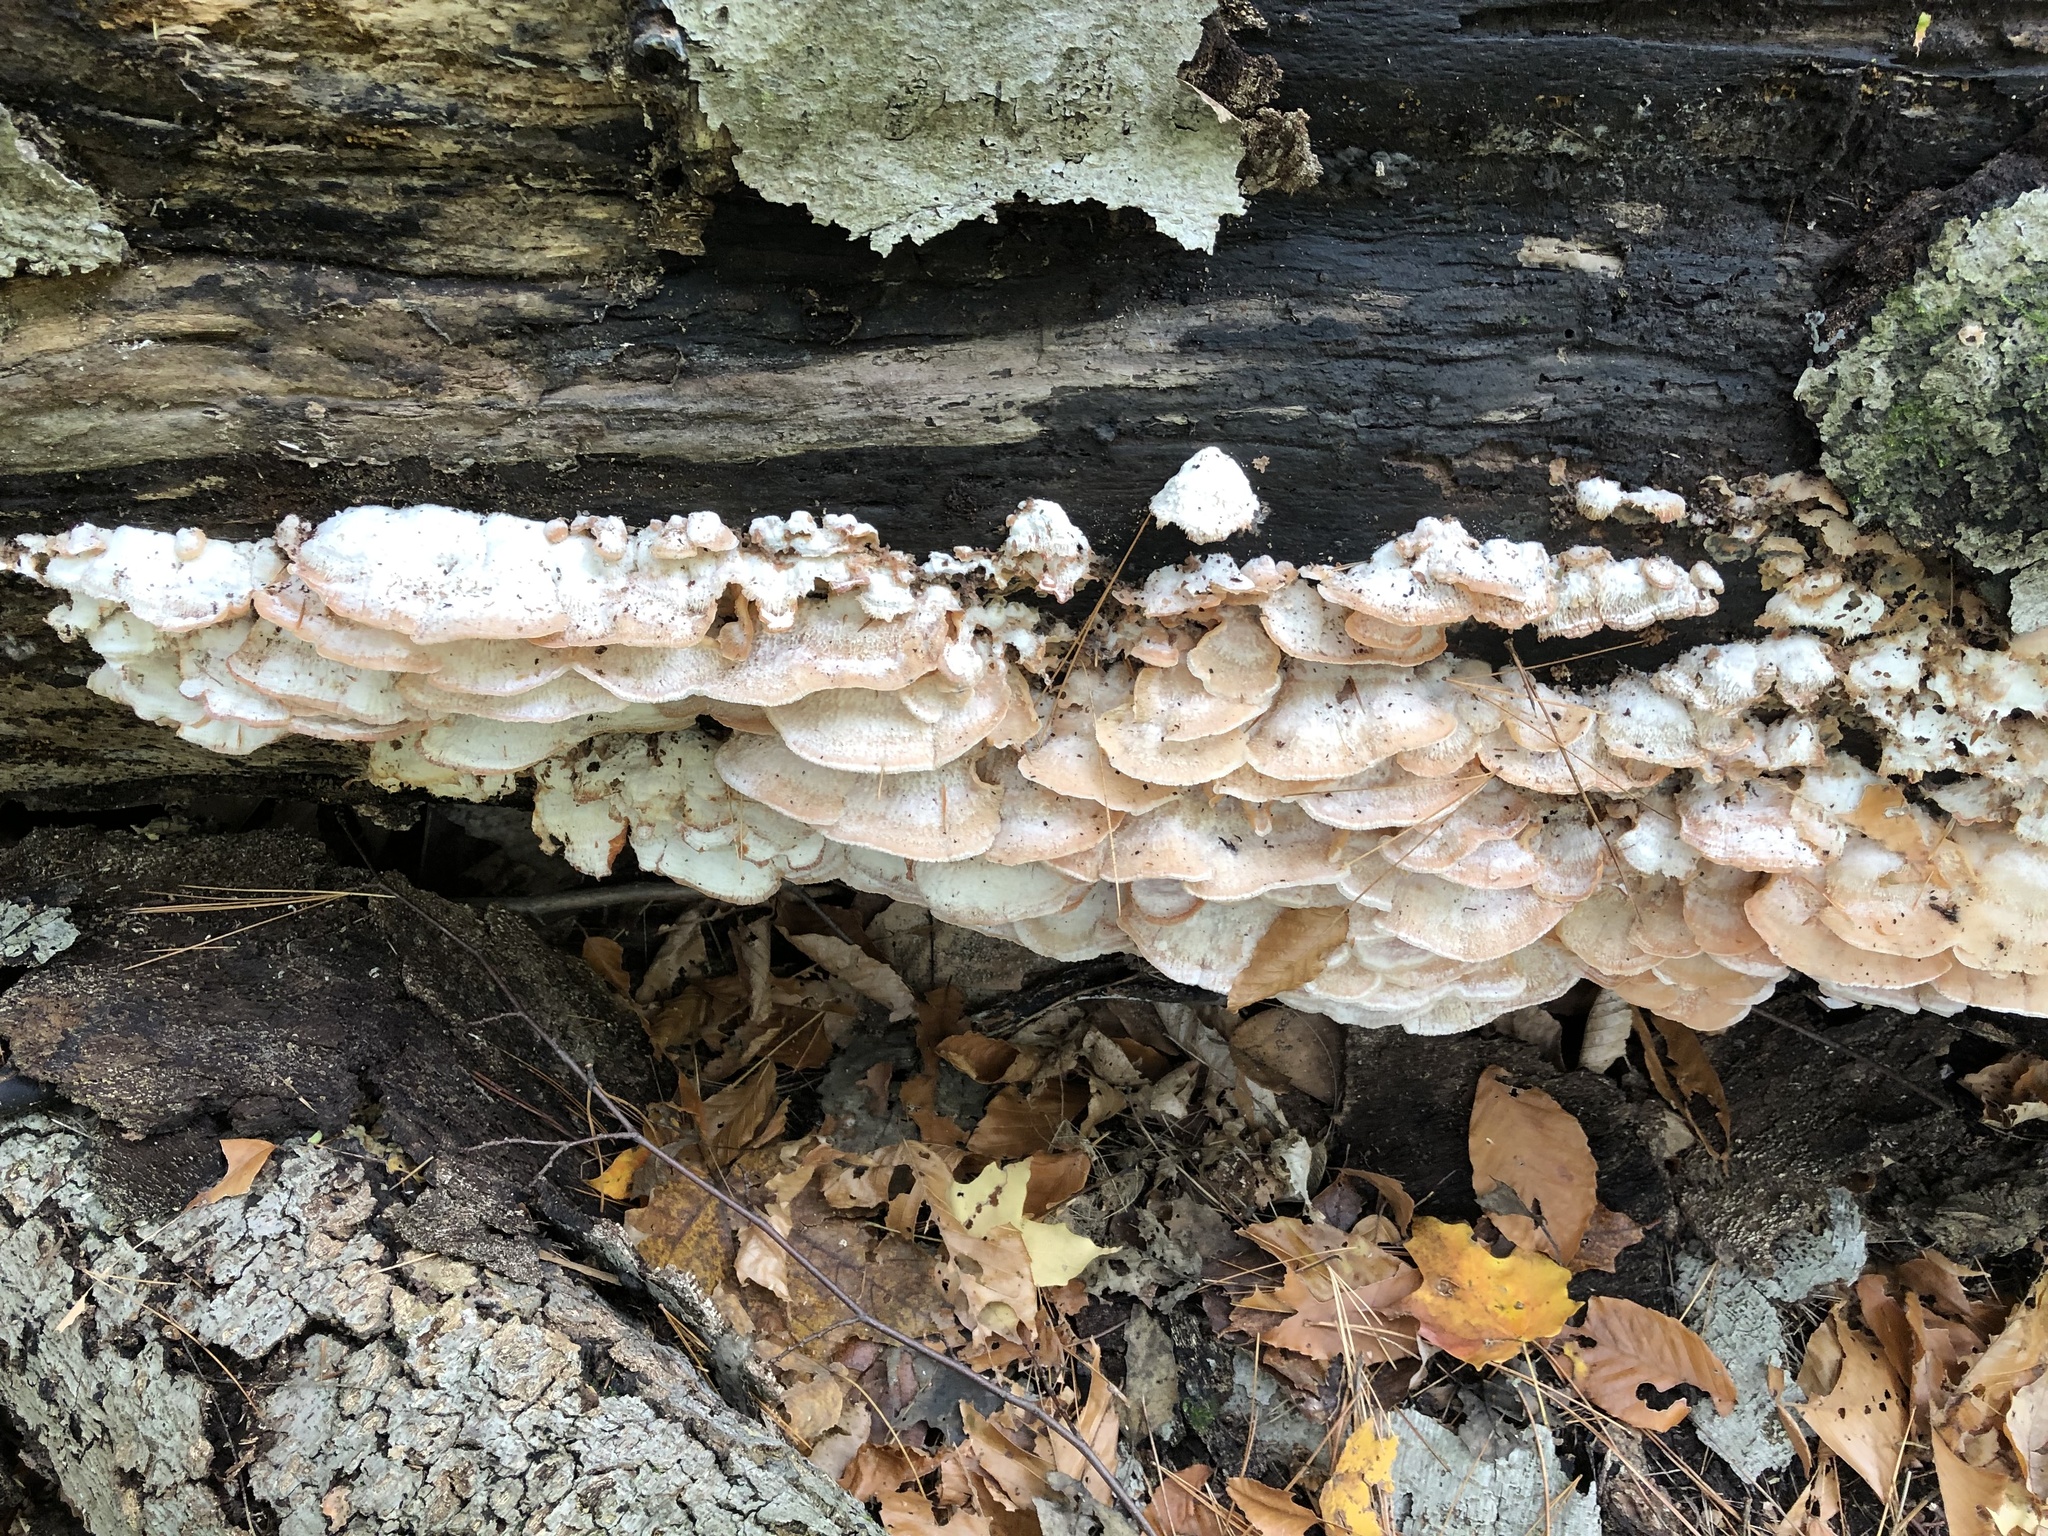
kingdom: Fungi
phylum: Basidiomycota
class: Agaricomycetes
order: Polyporales
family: Meruliaceae
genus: Phlebia
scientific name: Phlebia tremellosa
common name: Jelly rot
